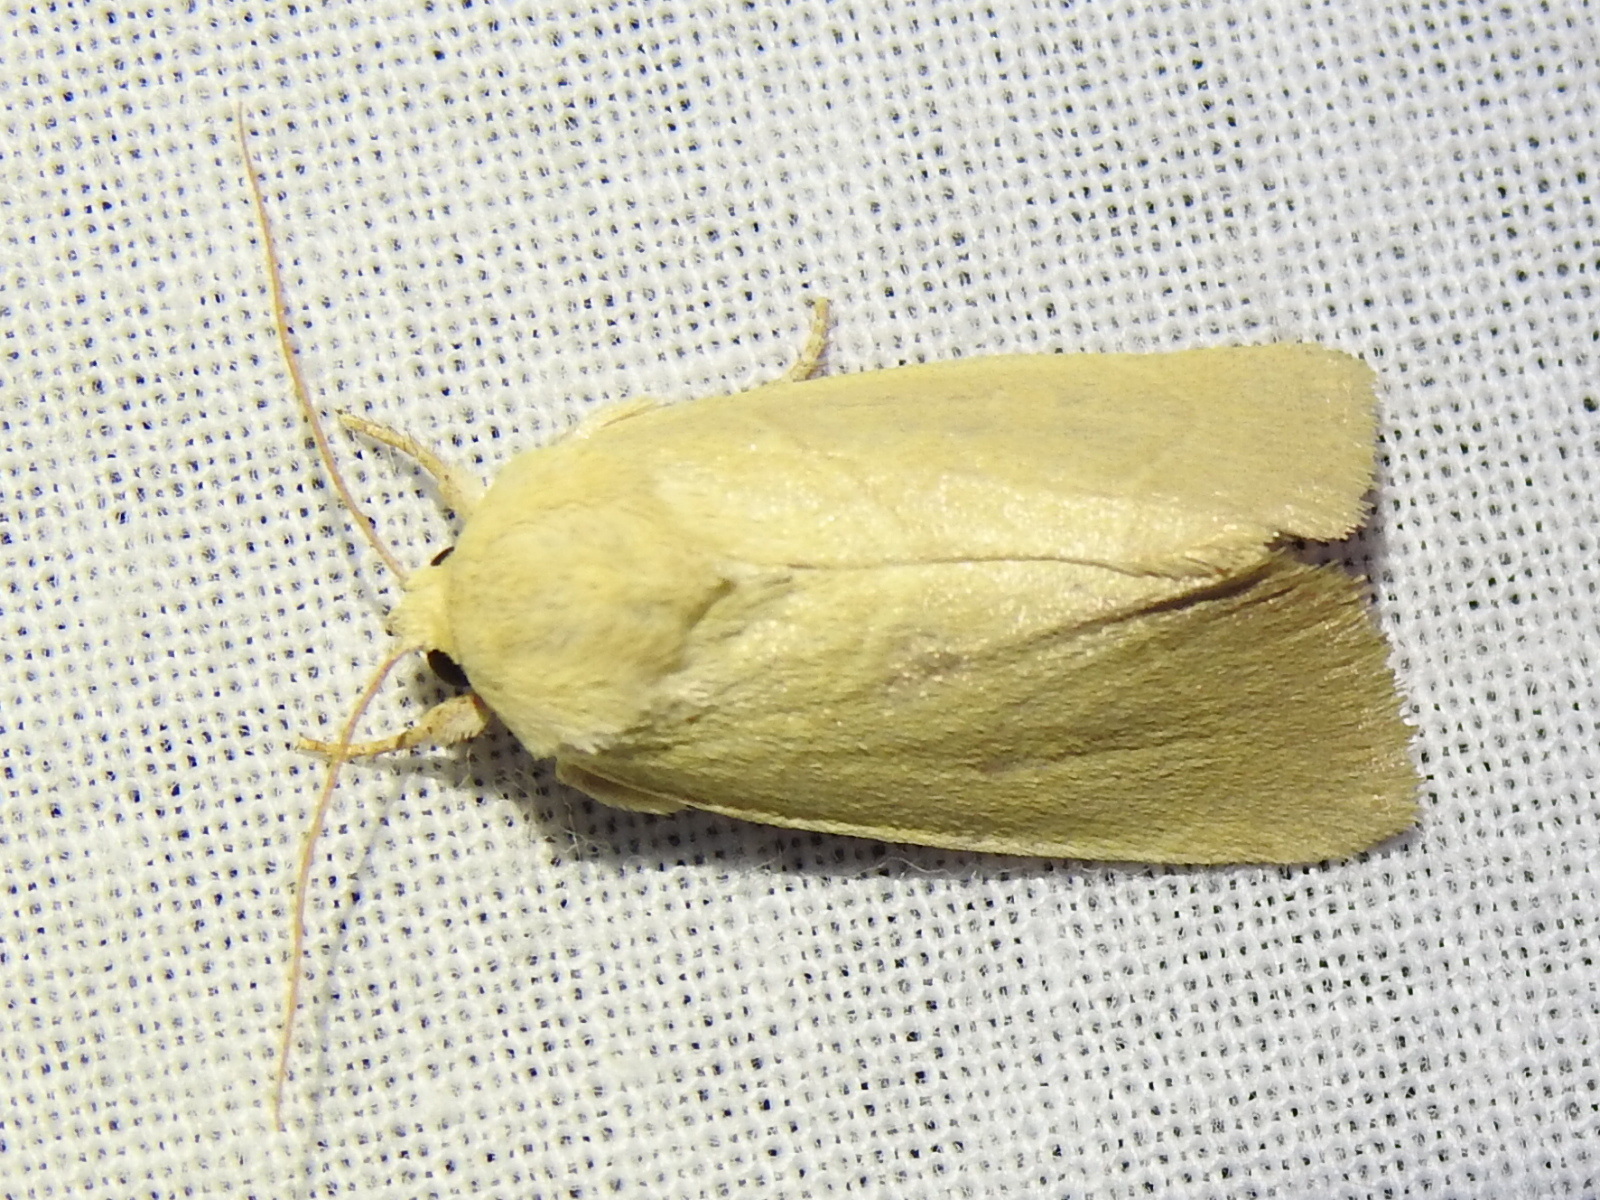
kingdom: Animalia
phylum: Arthropoda
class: Insecta
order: Lepidoptera
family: Noctuidae
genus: Cosmia
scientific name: Cosmia calami
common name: American dun-bar moth
